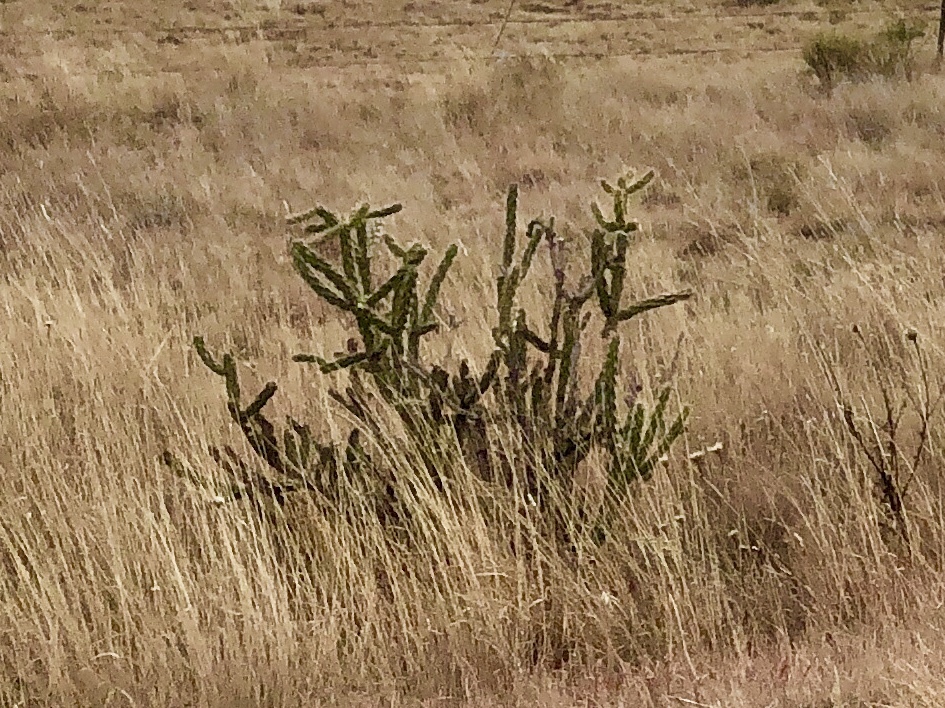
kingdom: Plantae
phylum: Tracheophyta
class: Magnoliopsida
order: Caryophyllales
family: Cactaceae
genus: Cylindropuntia
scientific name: Cylindropuntia imbricata
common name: Candelabrum cactus
